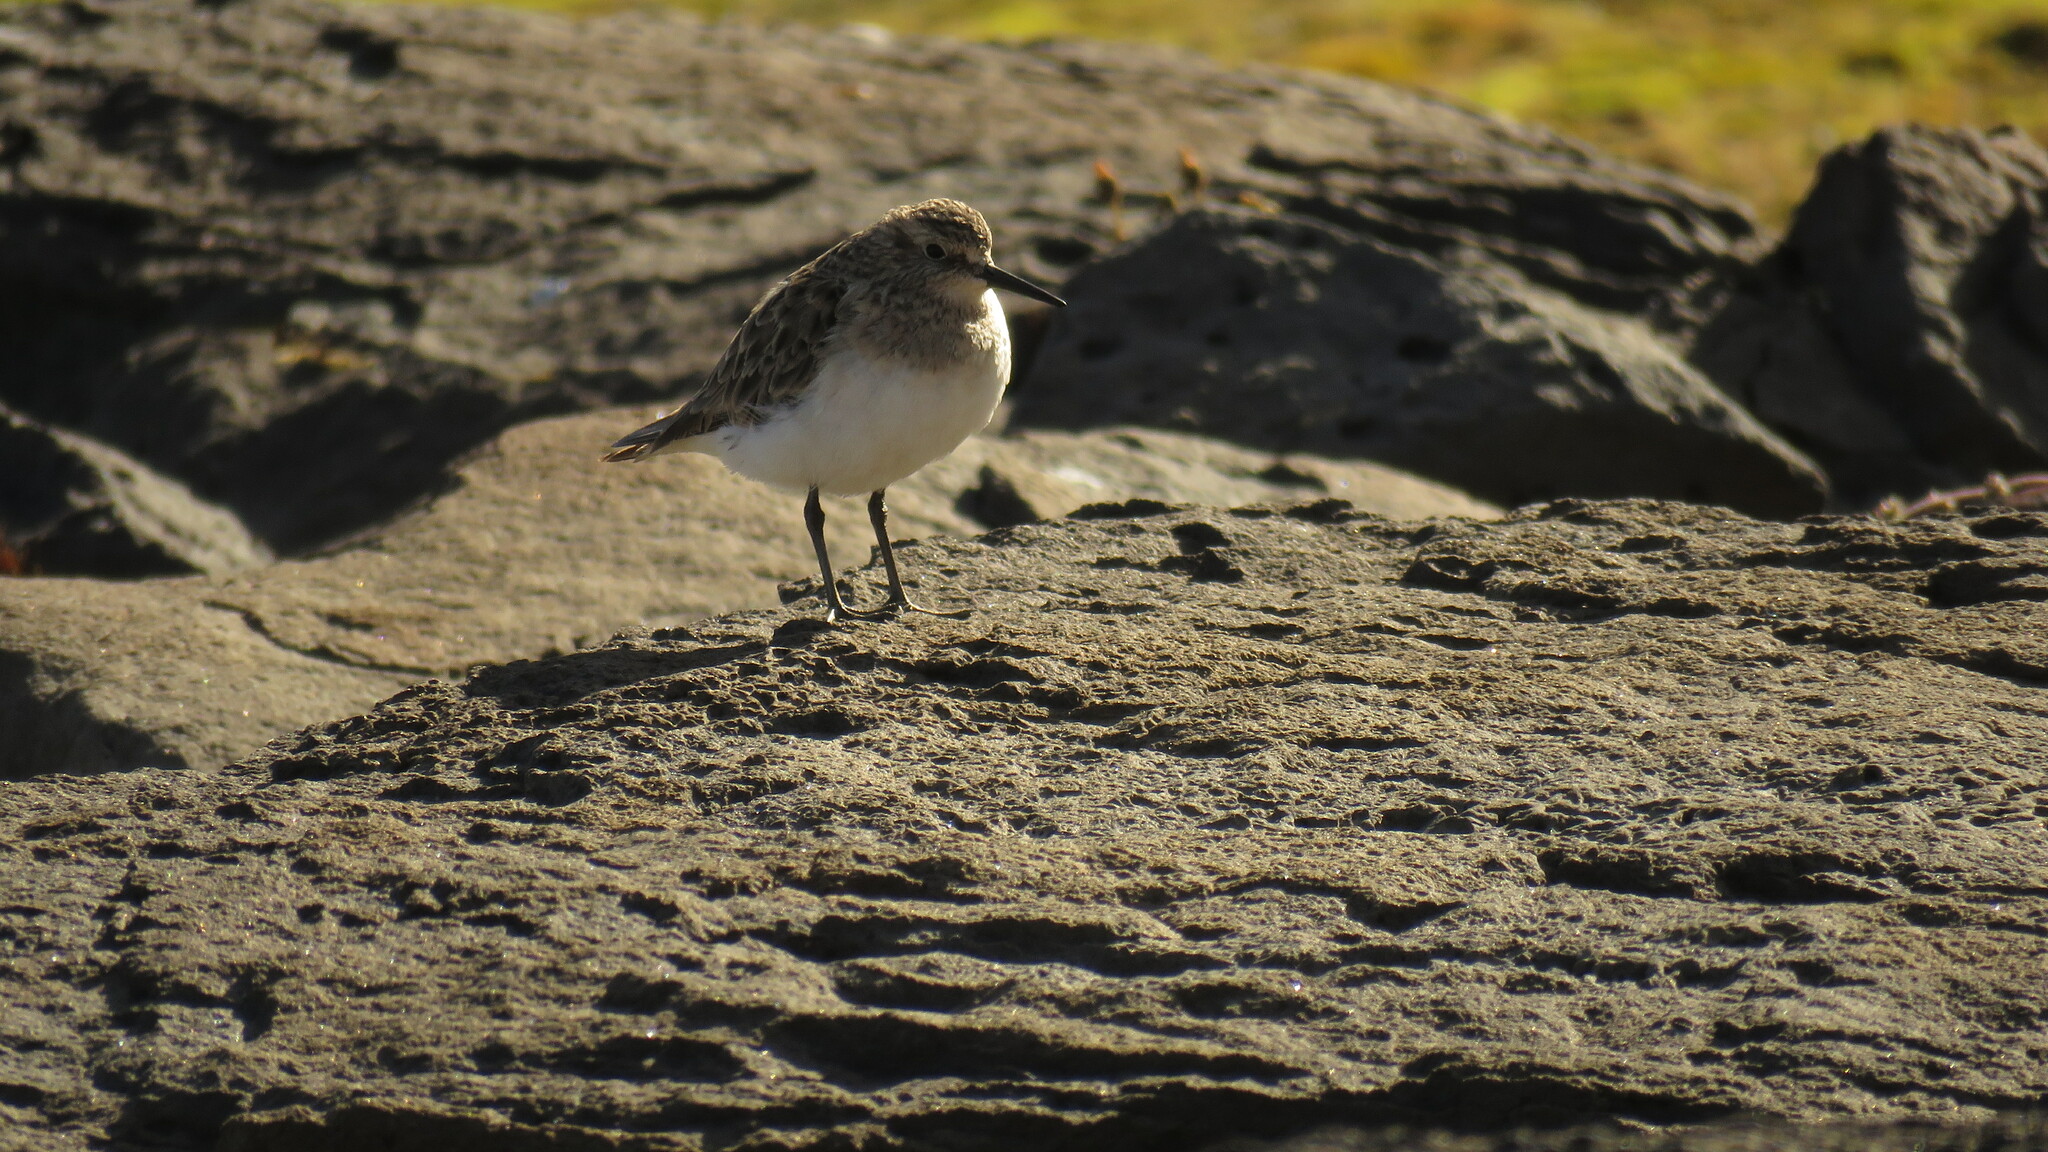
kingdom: Animalia
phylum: Chordata
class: Aves
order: Charadriiformes
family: Scolopacidae
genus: Calidris
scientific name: Calidris bairdii
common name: Baird's sandpiper
